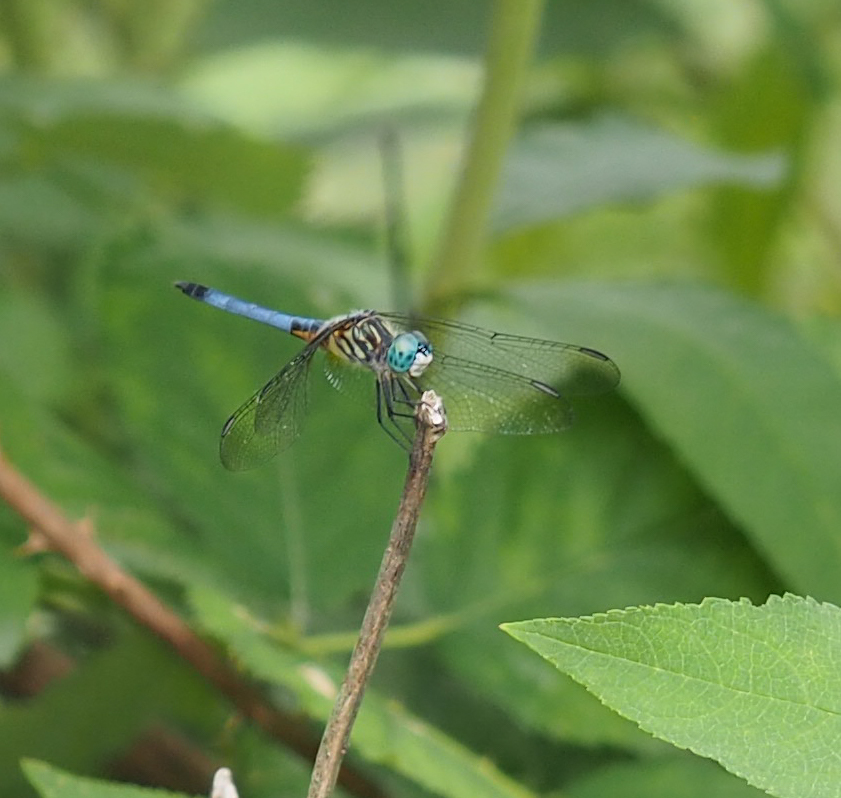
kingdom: Animalia
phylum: Arthropoda
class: Insecta
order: Odonata
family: Libellulidae
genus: Pachydiplax
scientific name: Pachydiplax longipennis
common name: Blue dasher
